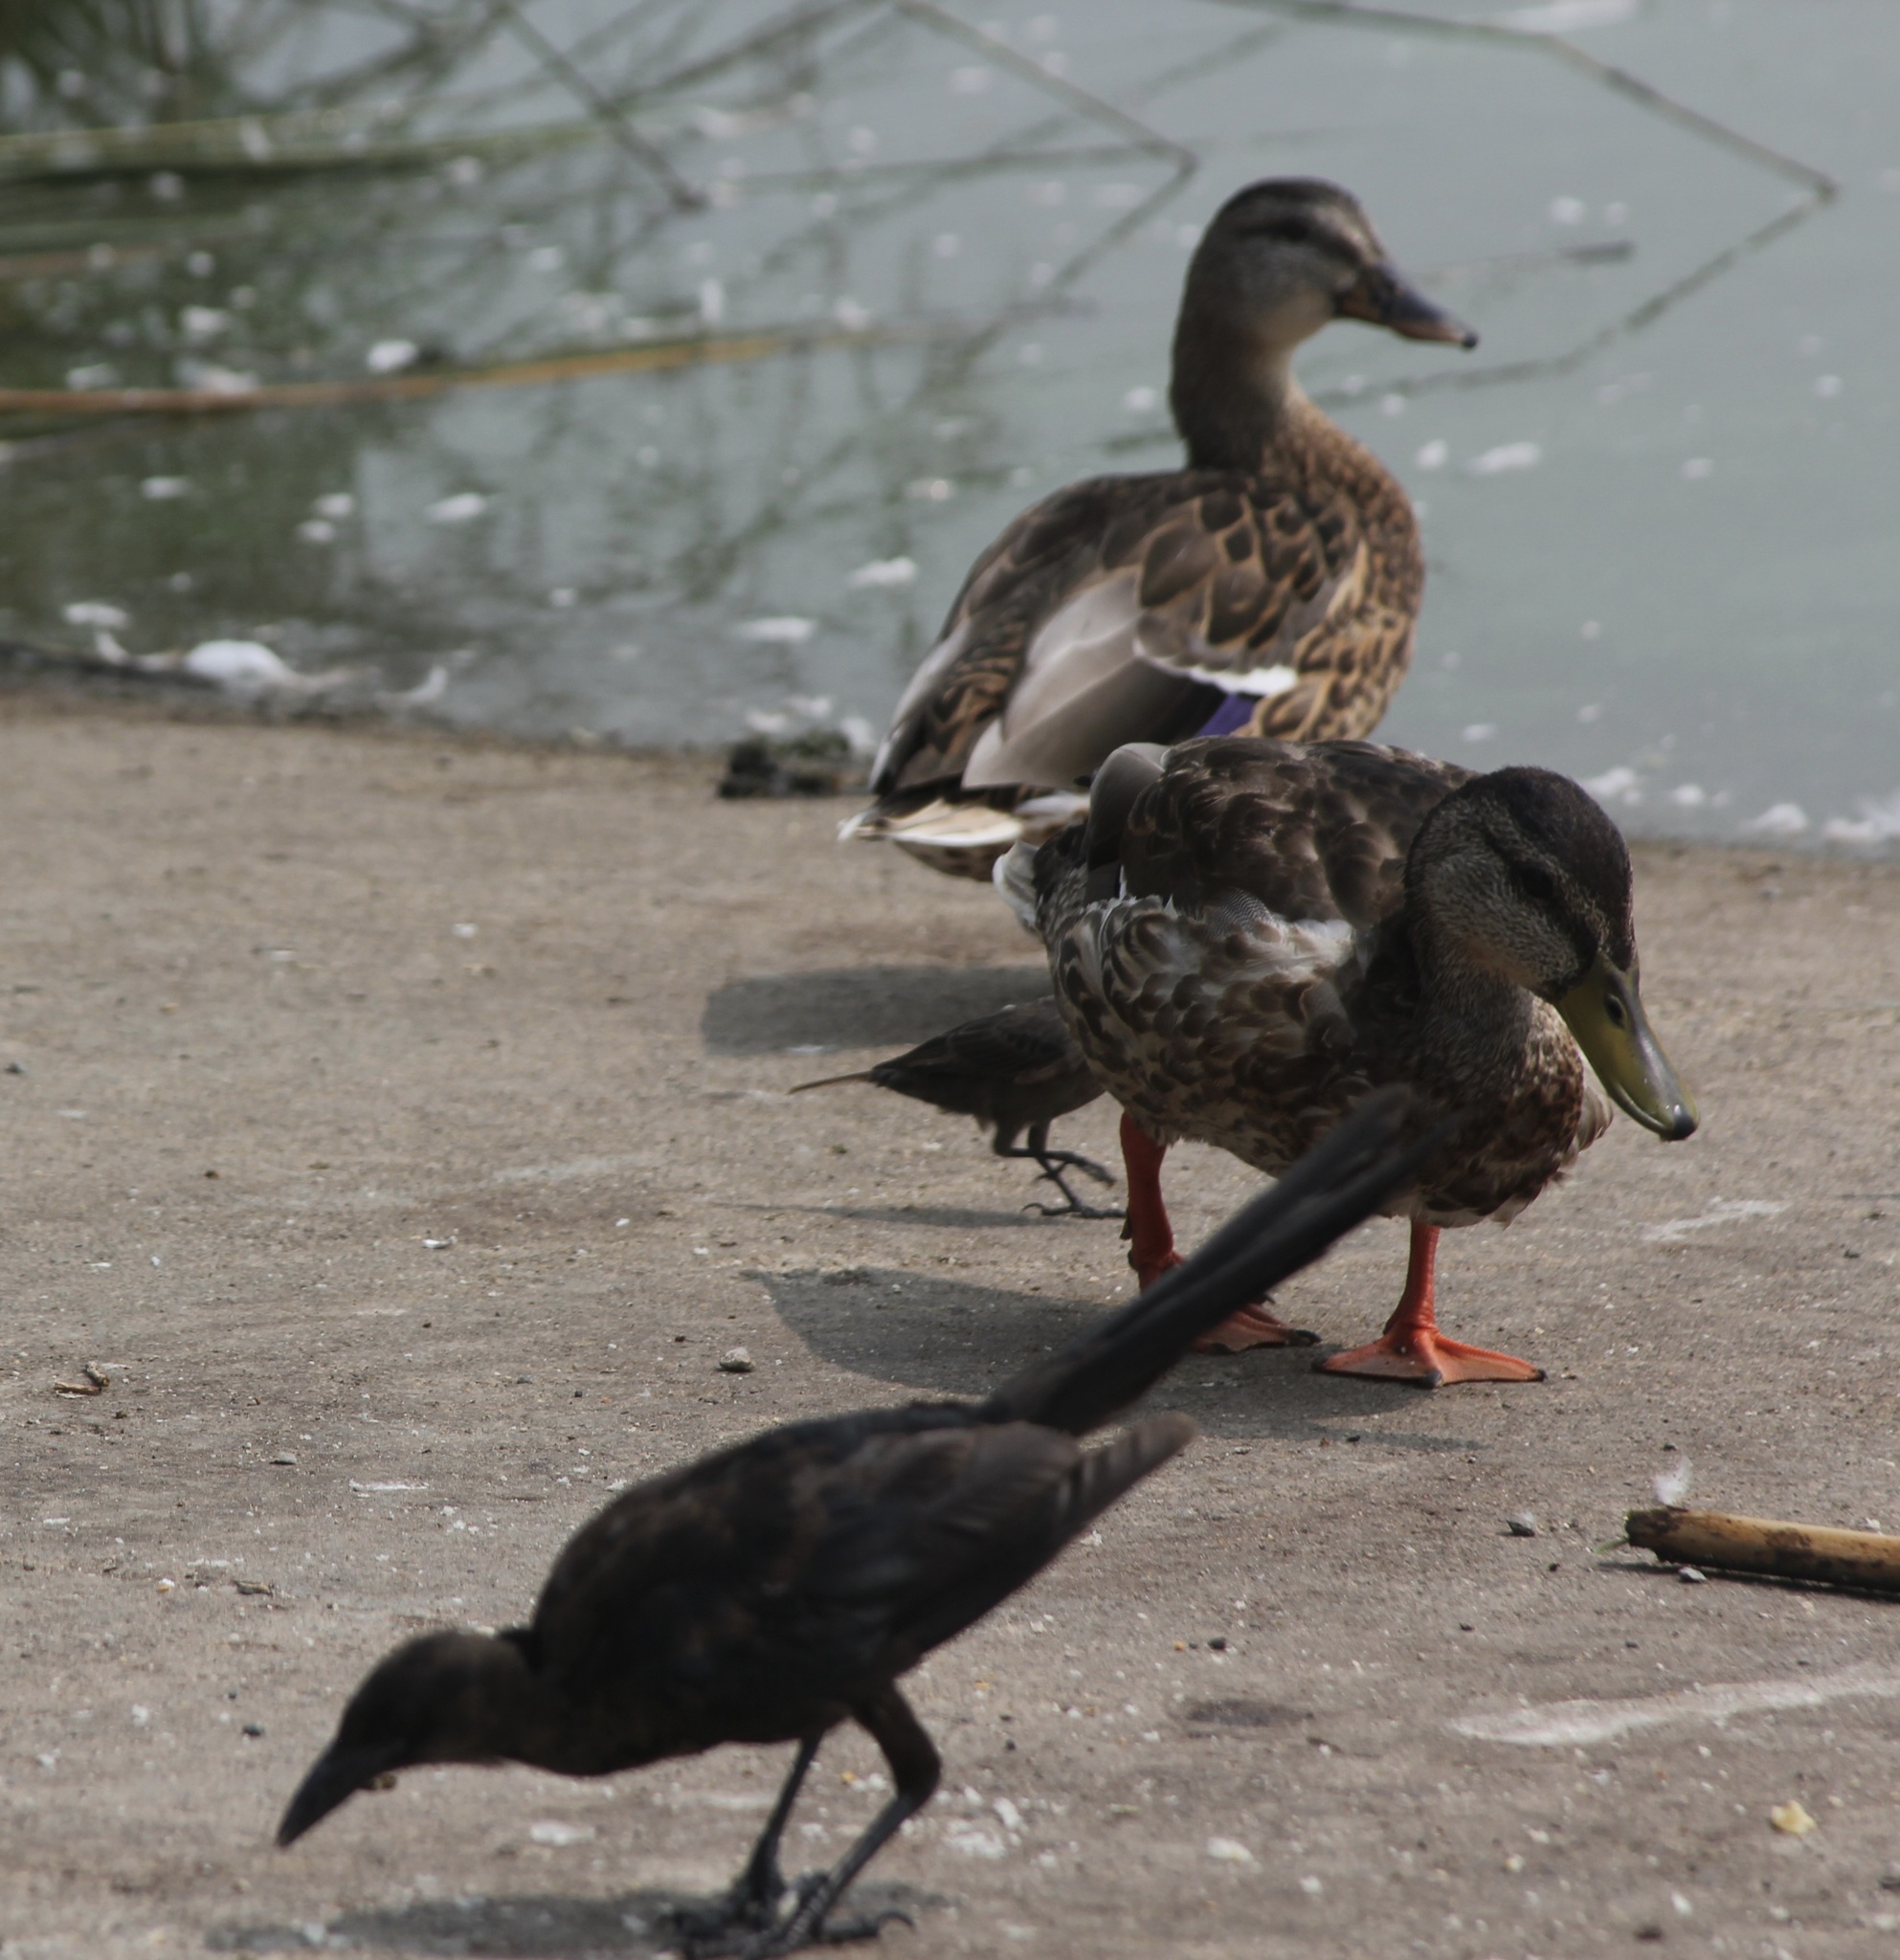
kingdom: Animalia
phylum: Chordata
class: Aves
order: Passeriformes
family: Icteridae
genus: Quiscalus
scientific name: Quiscalus mexicanus
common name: Great-tailed grackle
